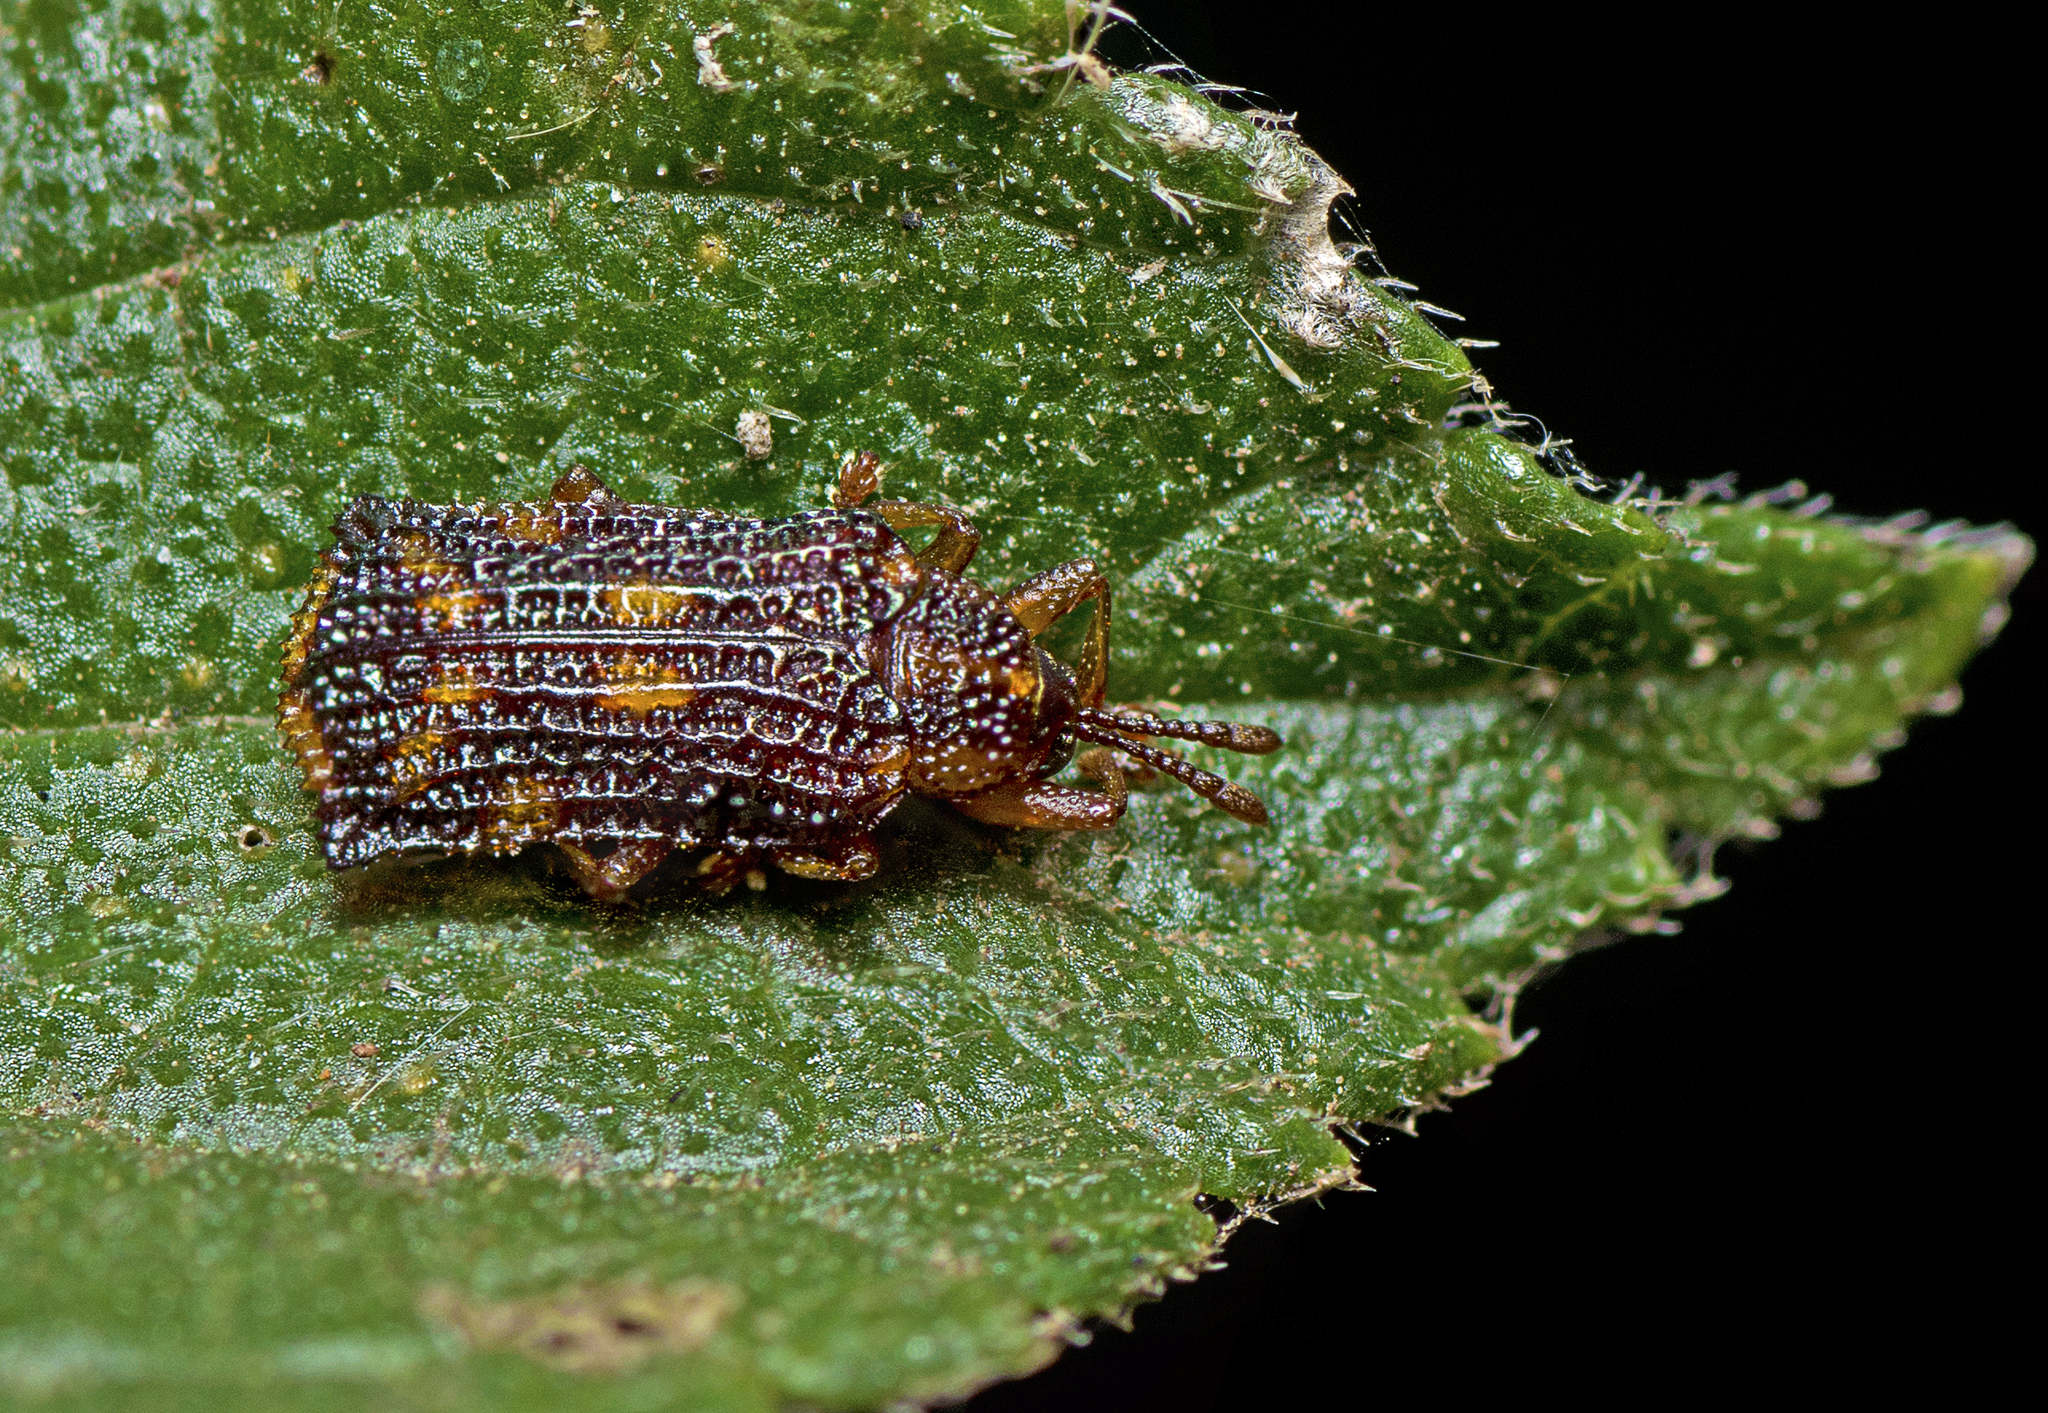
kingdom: Animalia
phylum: Arthropoda
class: Insecta
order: Coleoptera
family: Chrysomelidae
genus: Uroplata
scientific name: Uroplata girardi
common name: Lantana leafminer
